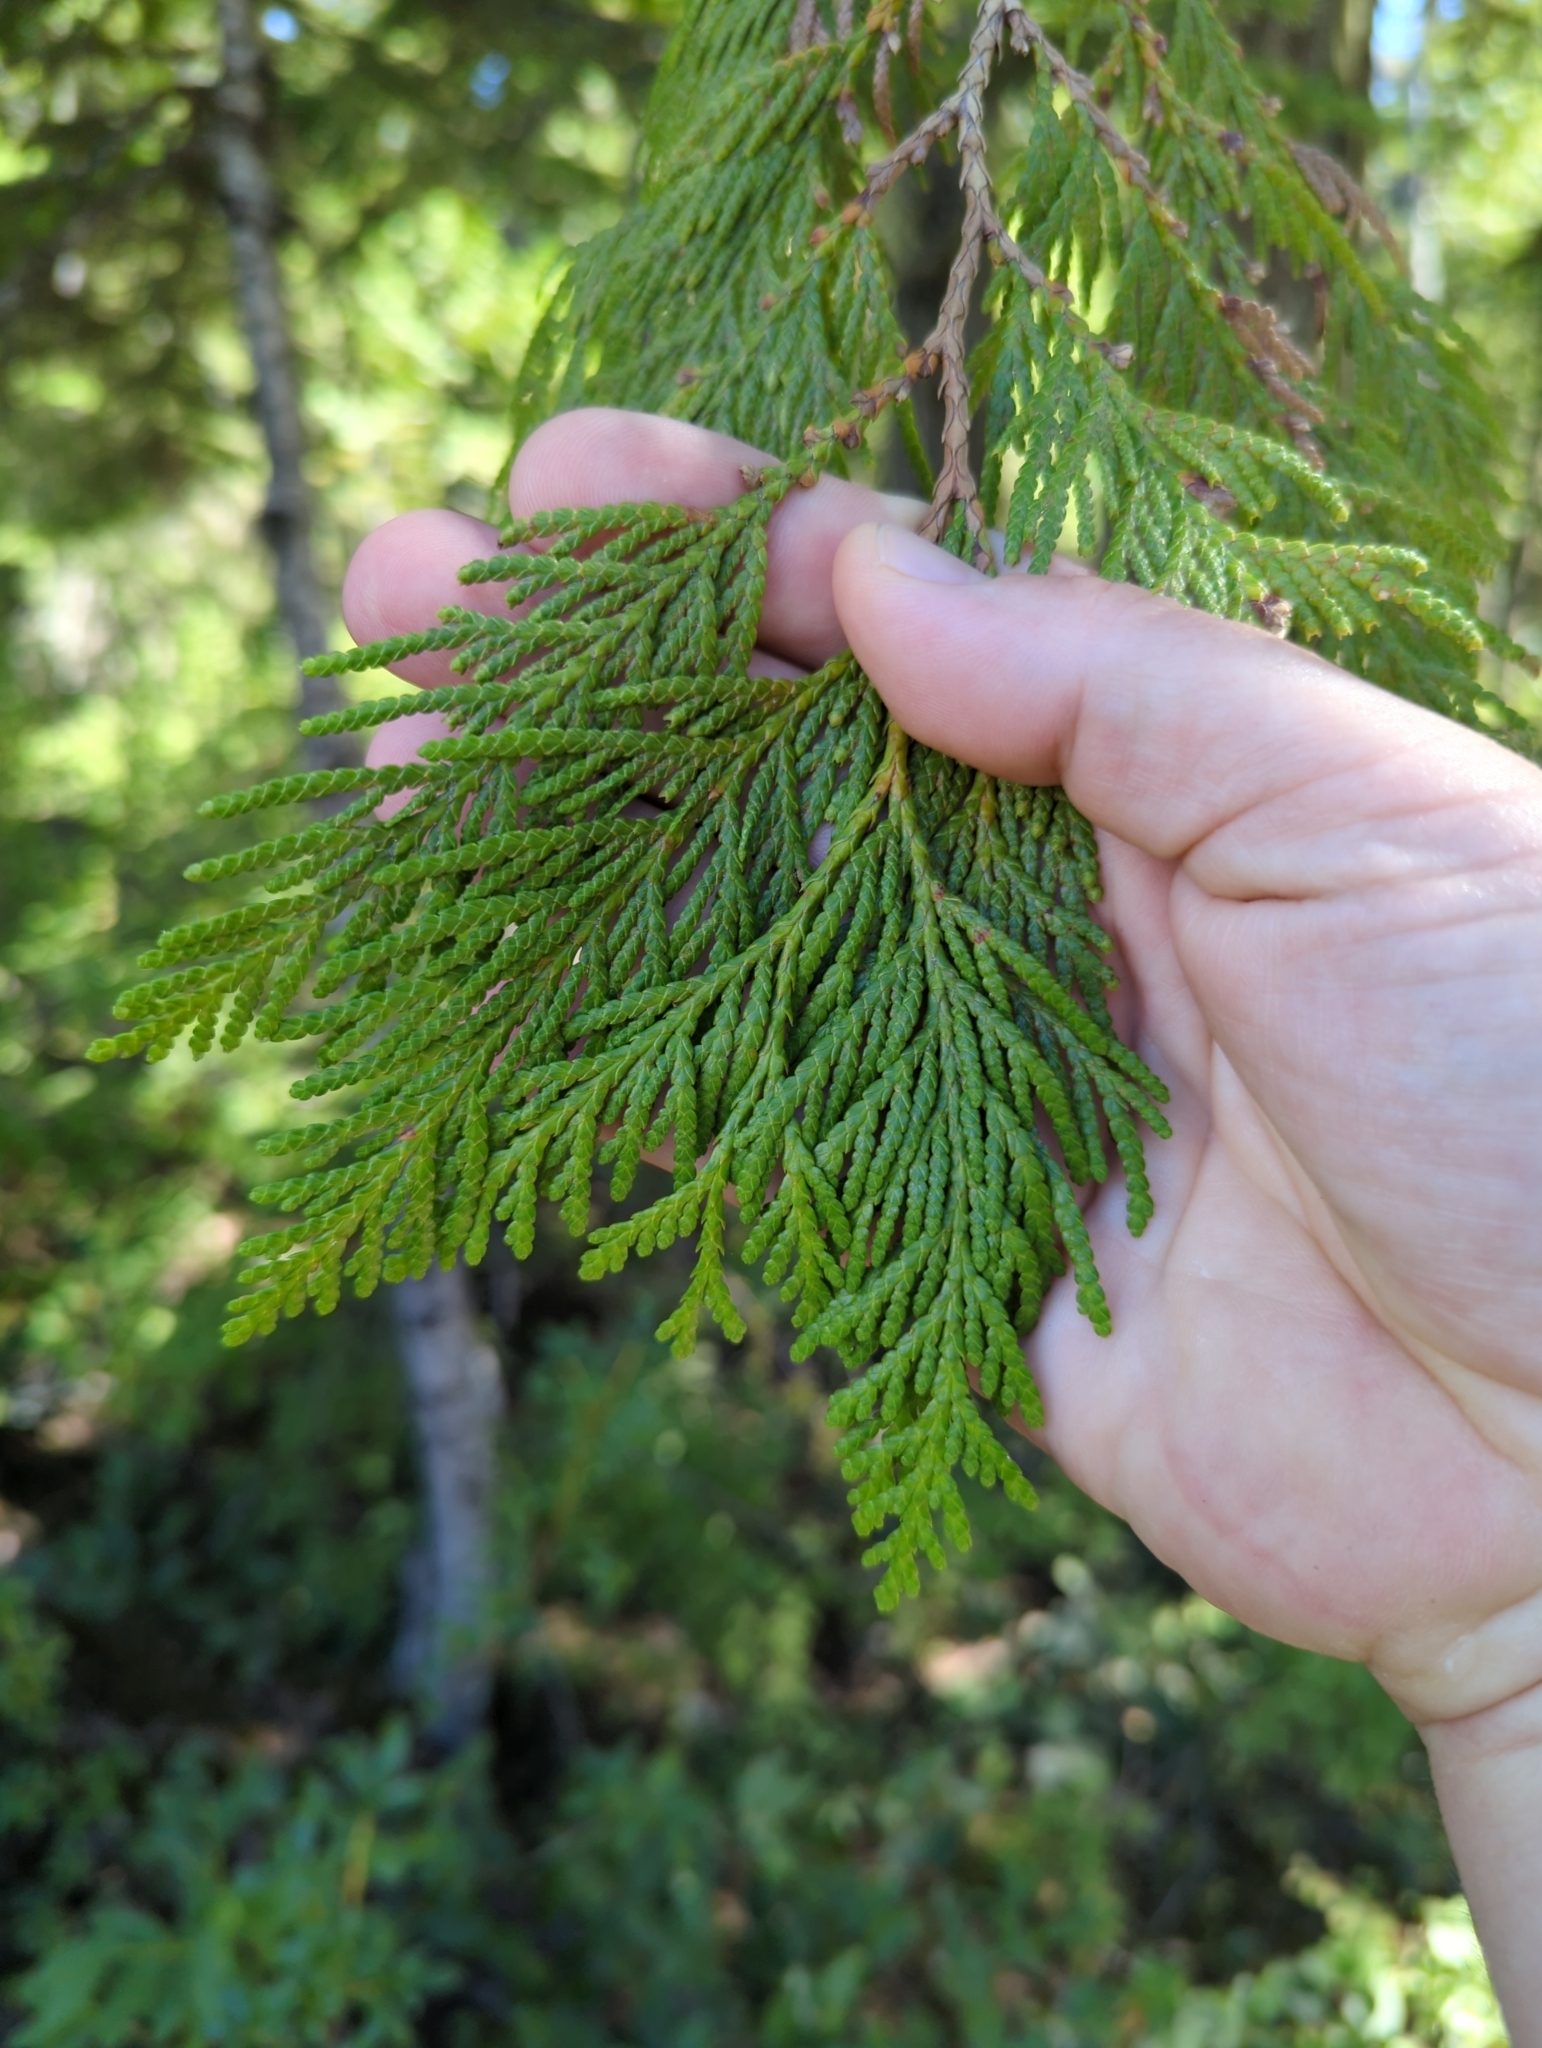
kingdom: Plantae
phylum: Tracheophyta
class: Pinopsida
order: Pinales
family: Cupressaceae
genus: Thuja
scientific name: Thuja plicata
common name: Western red-cedar
